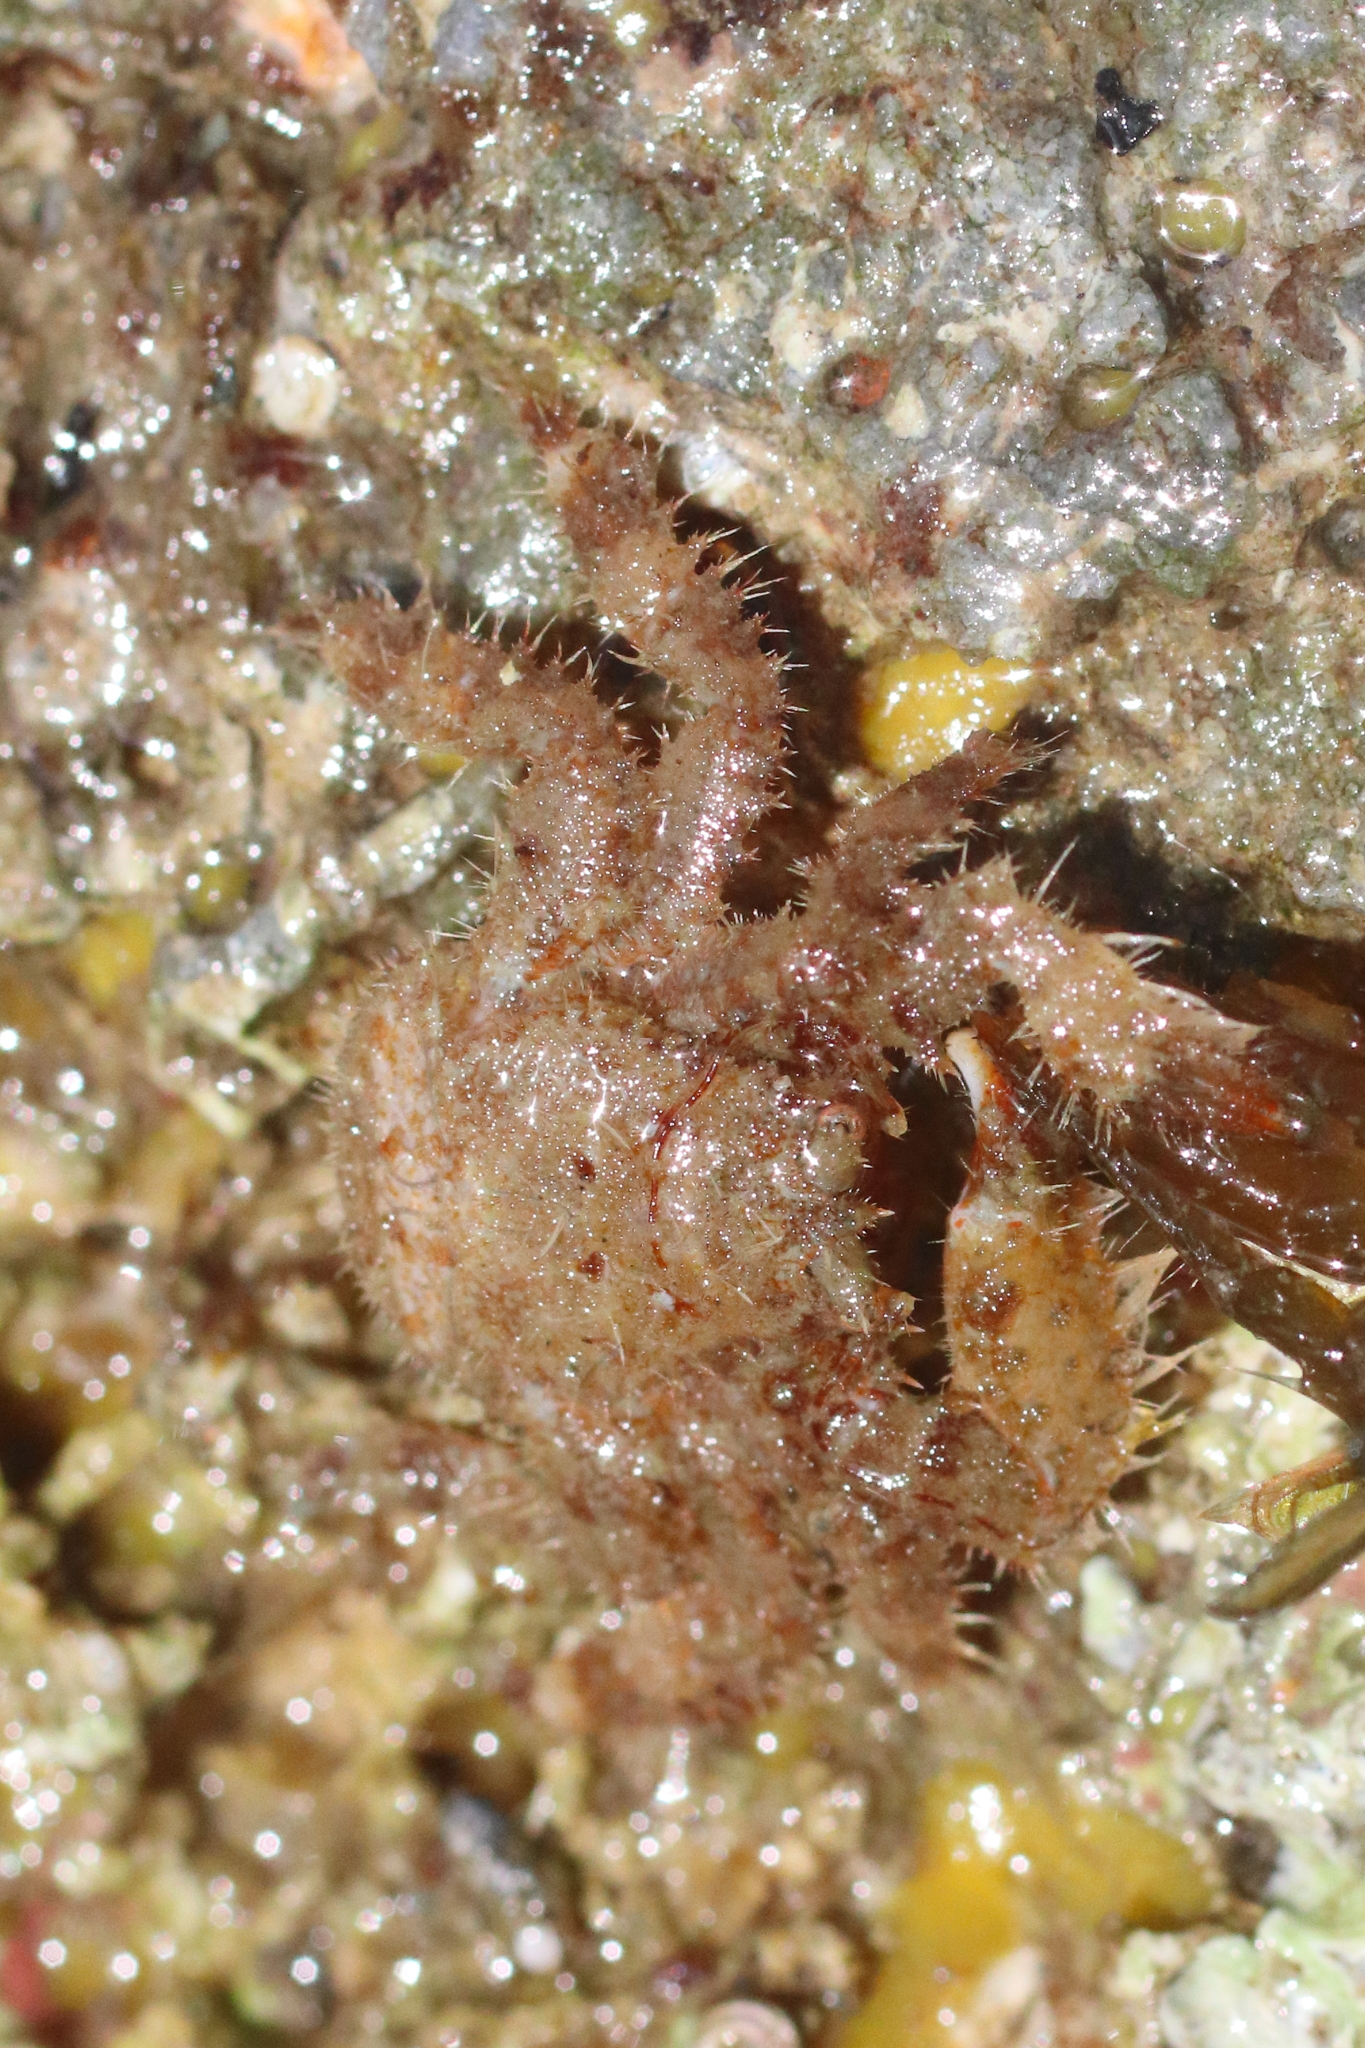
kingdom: Animalia
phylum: Arthropoda
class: Malacostraca
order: Decapoda
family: Hapalogastridae
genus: Hapalogaster
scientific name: Hapalogaster mertensii
